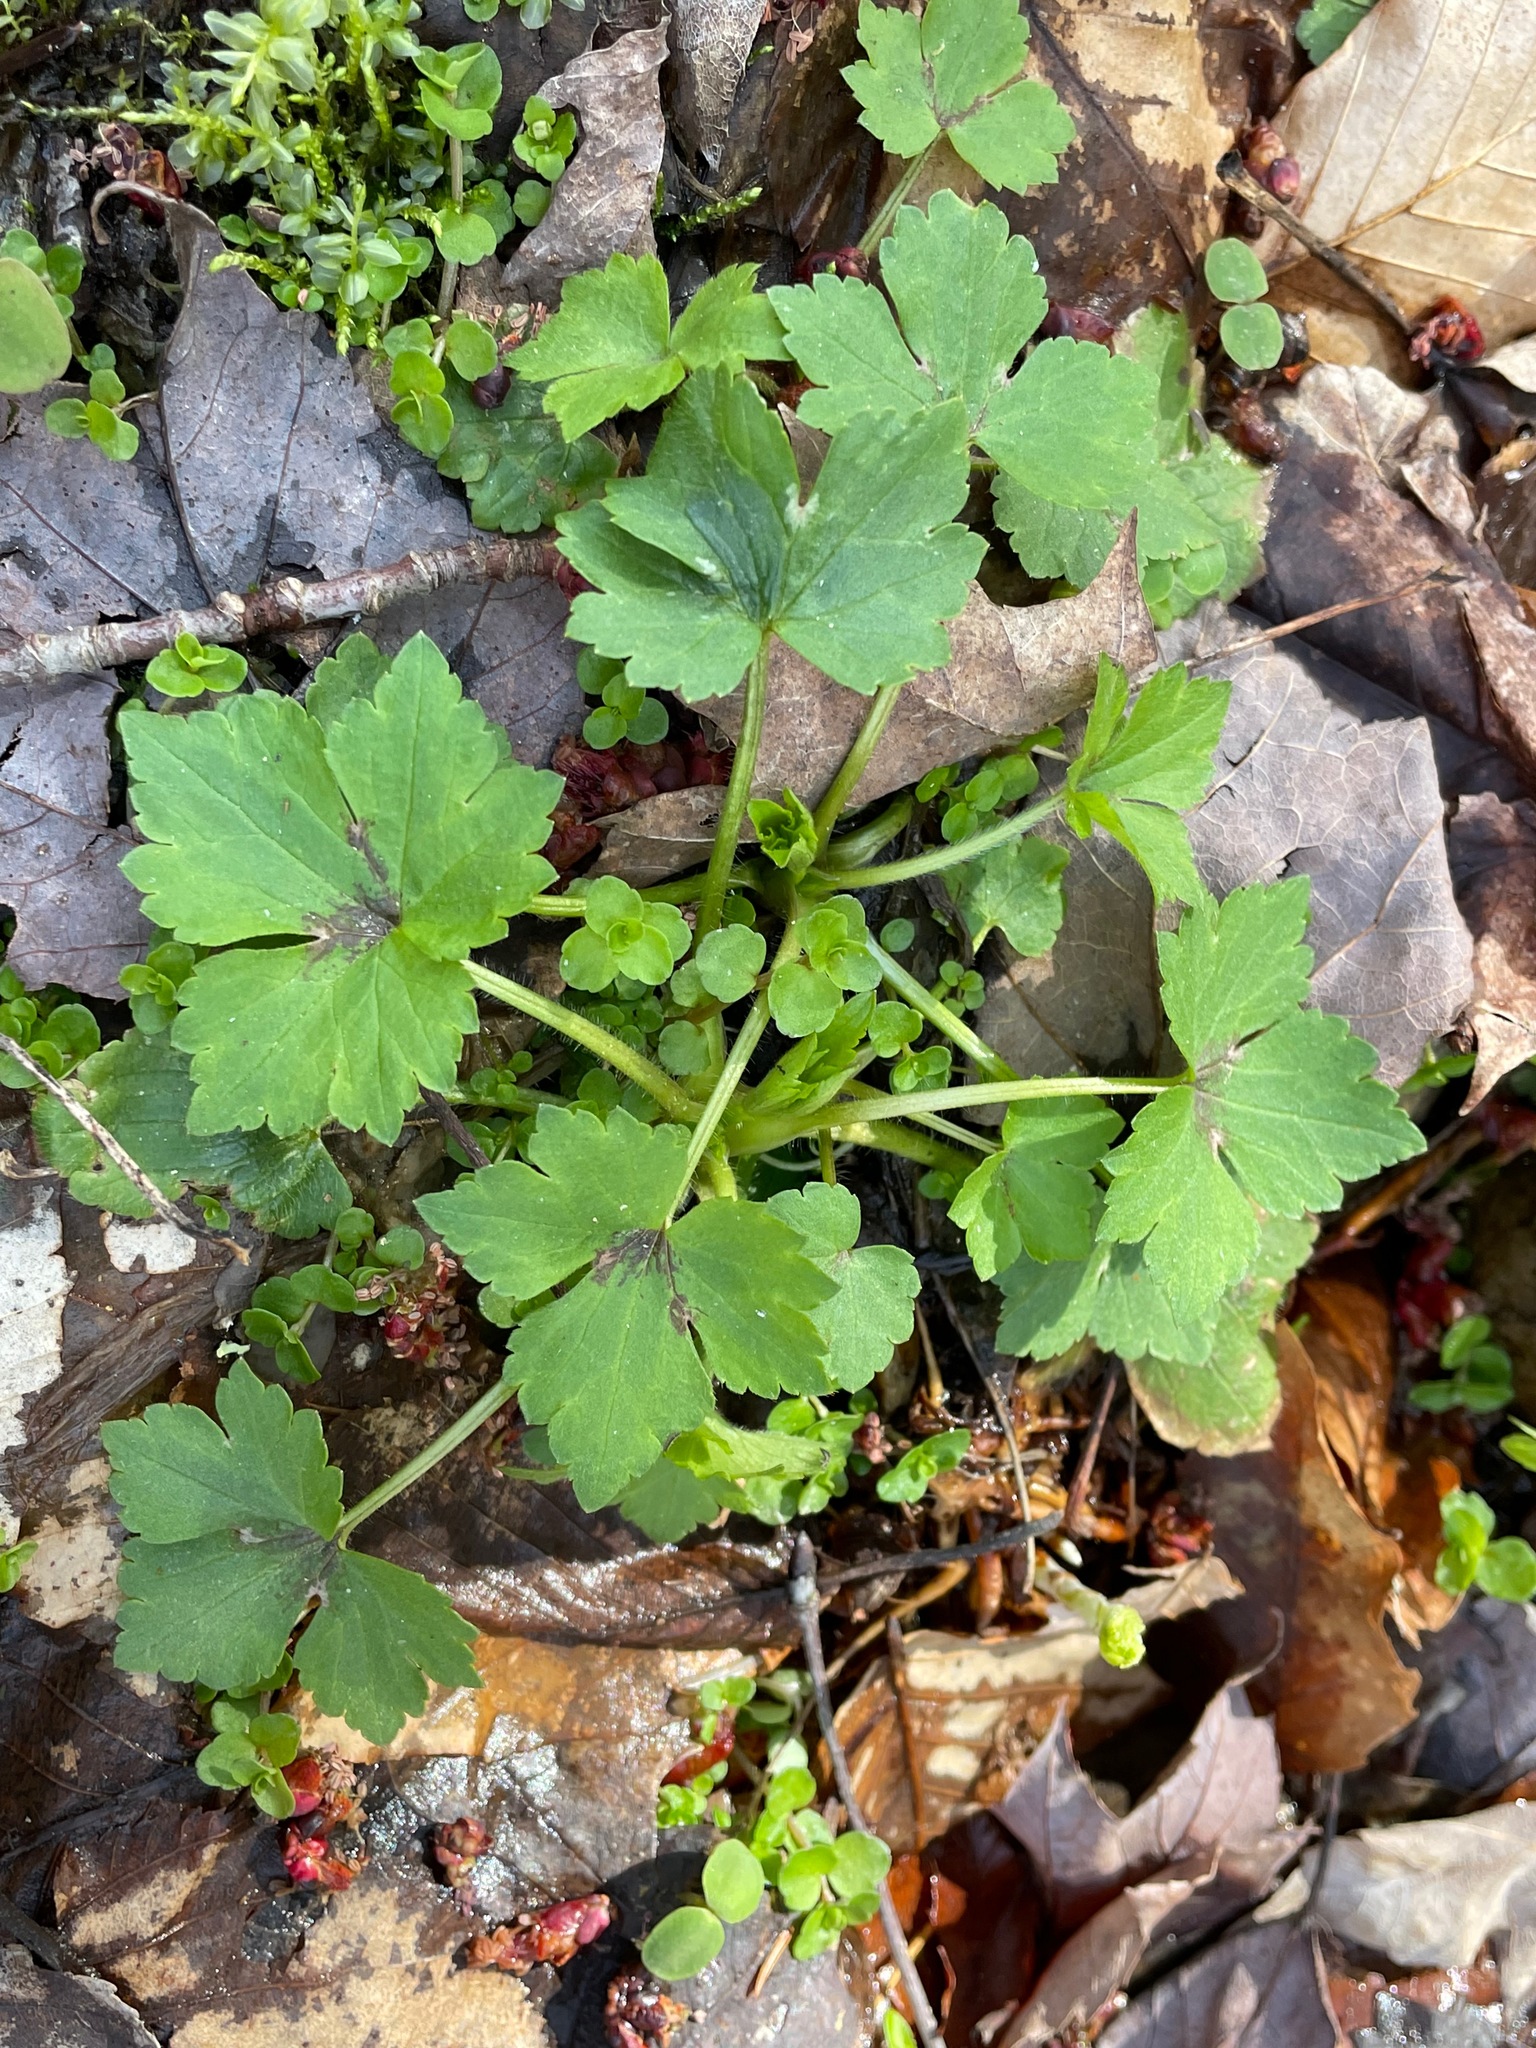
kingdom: Plantae
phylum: Tracheophyta
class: Magnoliopsida
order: Ranunculales
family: Ranunculaceae
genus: Ranunculus
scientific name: Ranunculus recurvatus
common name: Blisterwort
